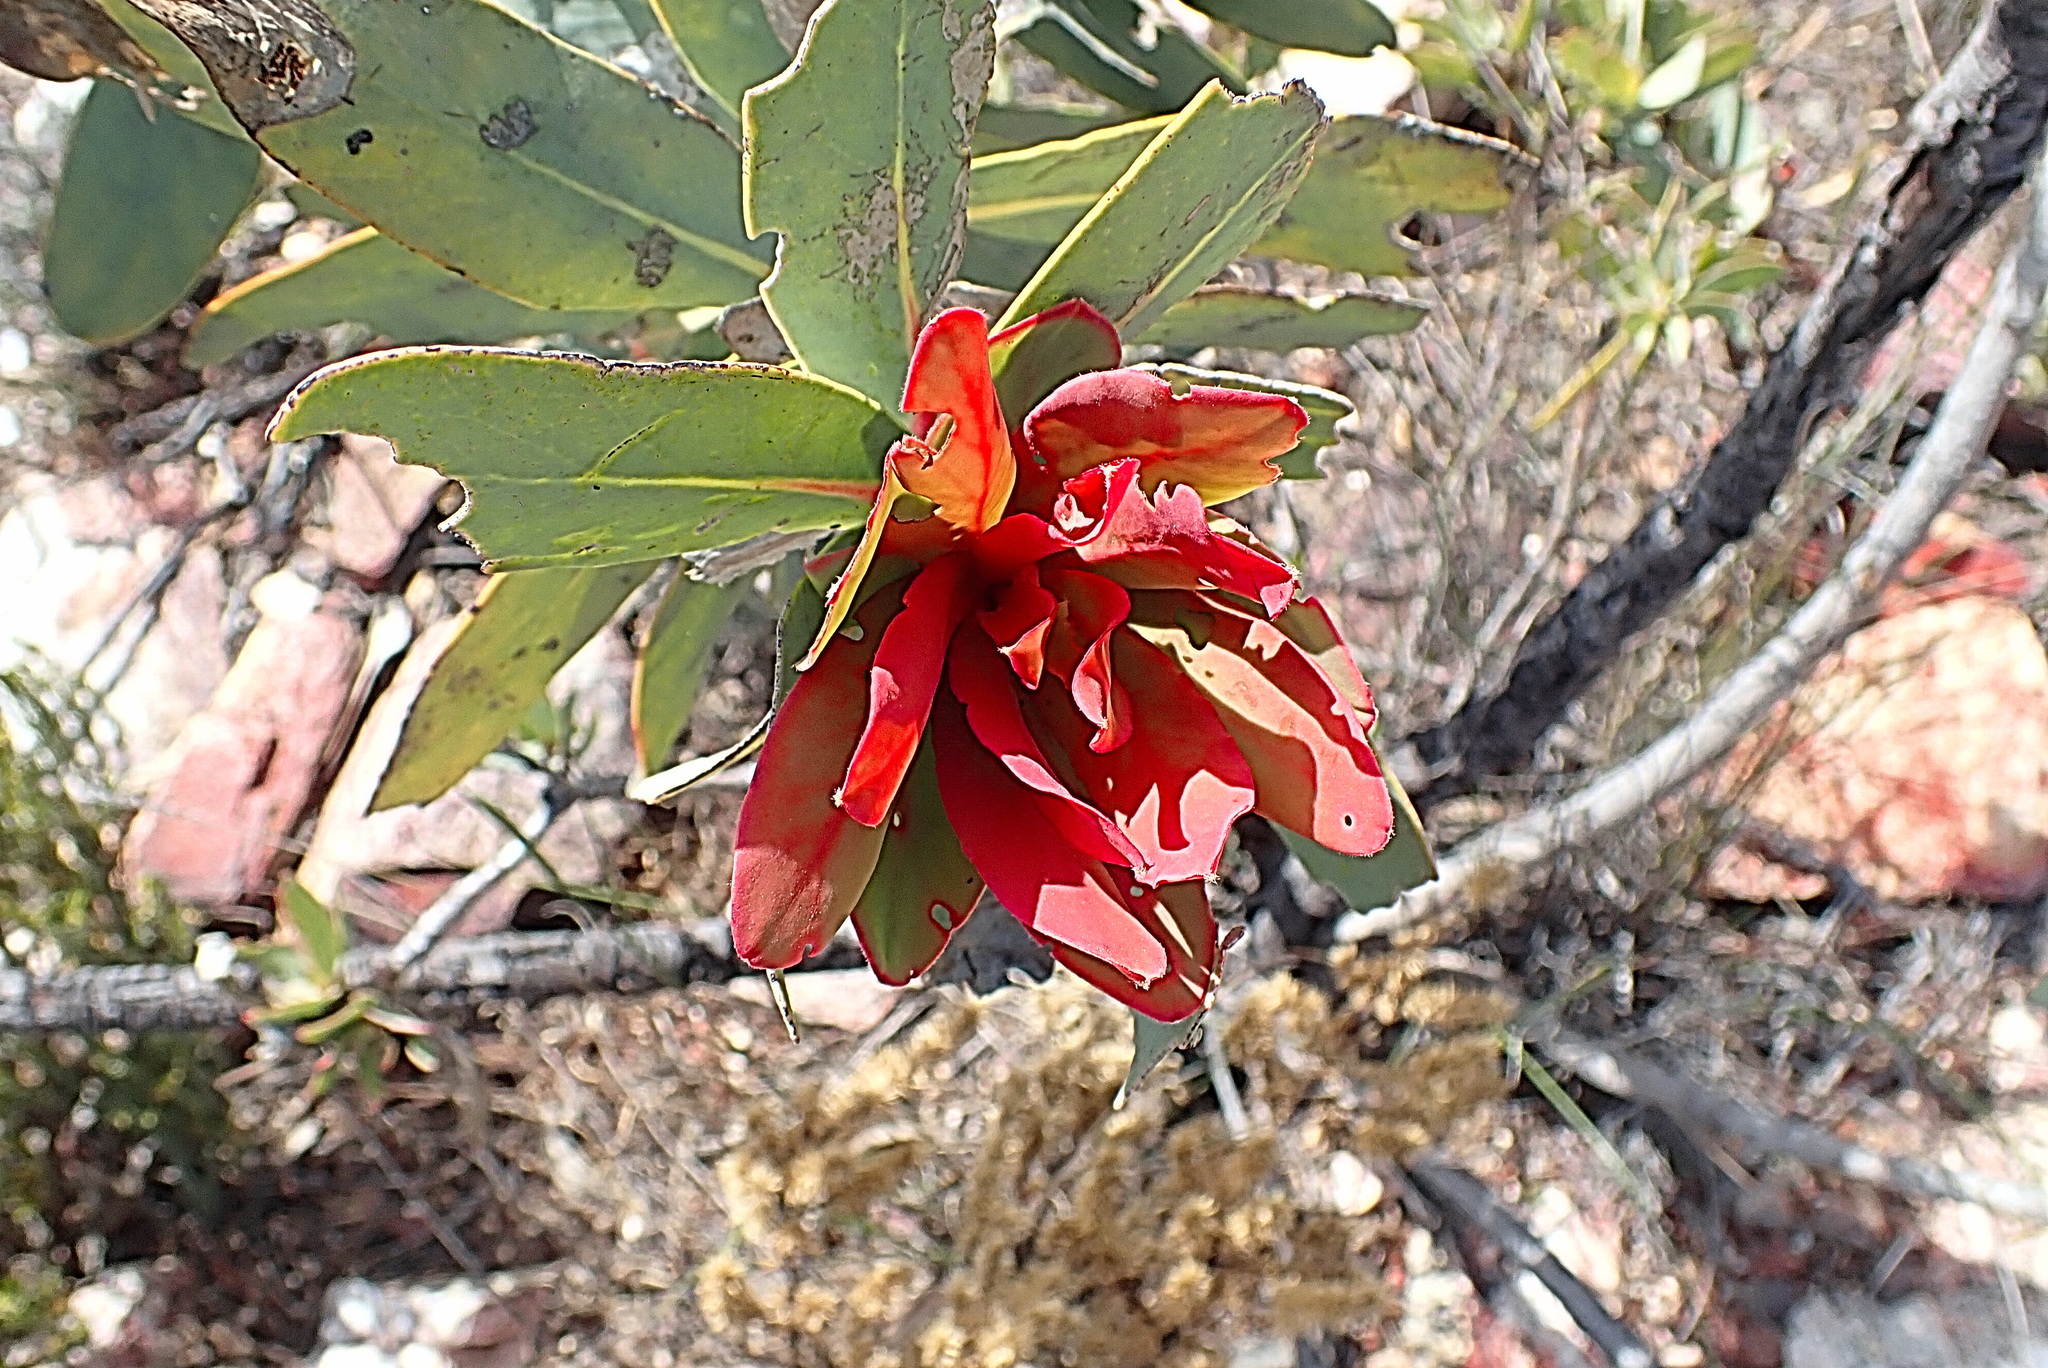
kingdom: Plantae
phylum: Tracheophyta
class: Magnoliopsida
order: Proteales
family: Proteaceae
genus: Protea
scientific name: Protea nitida
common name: Tree protea
